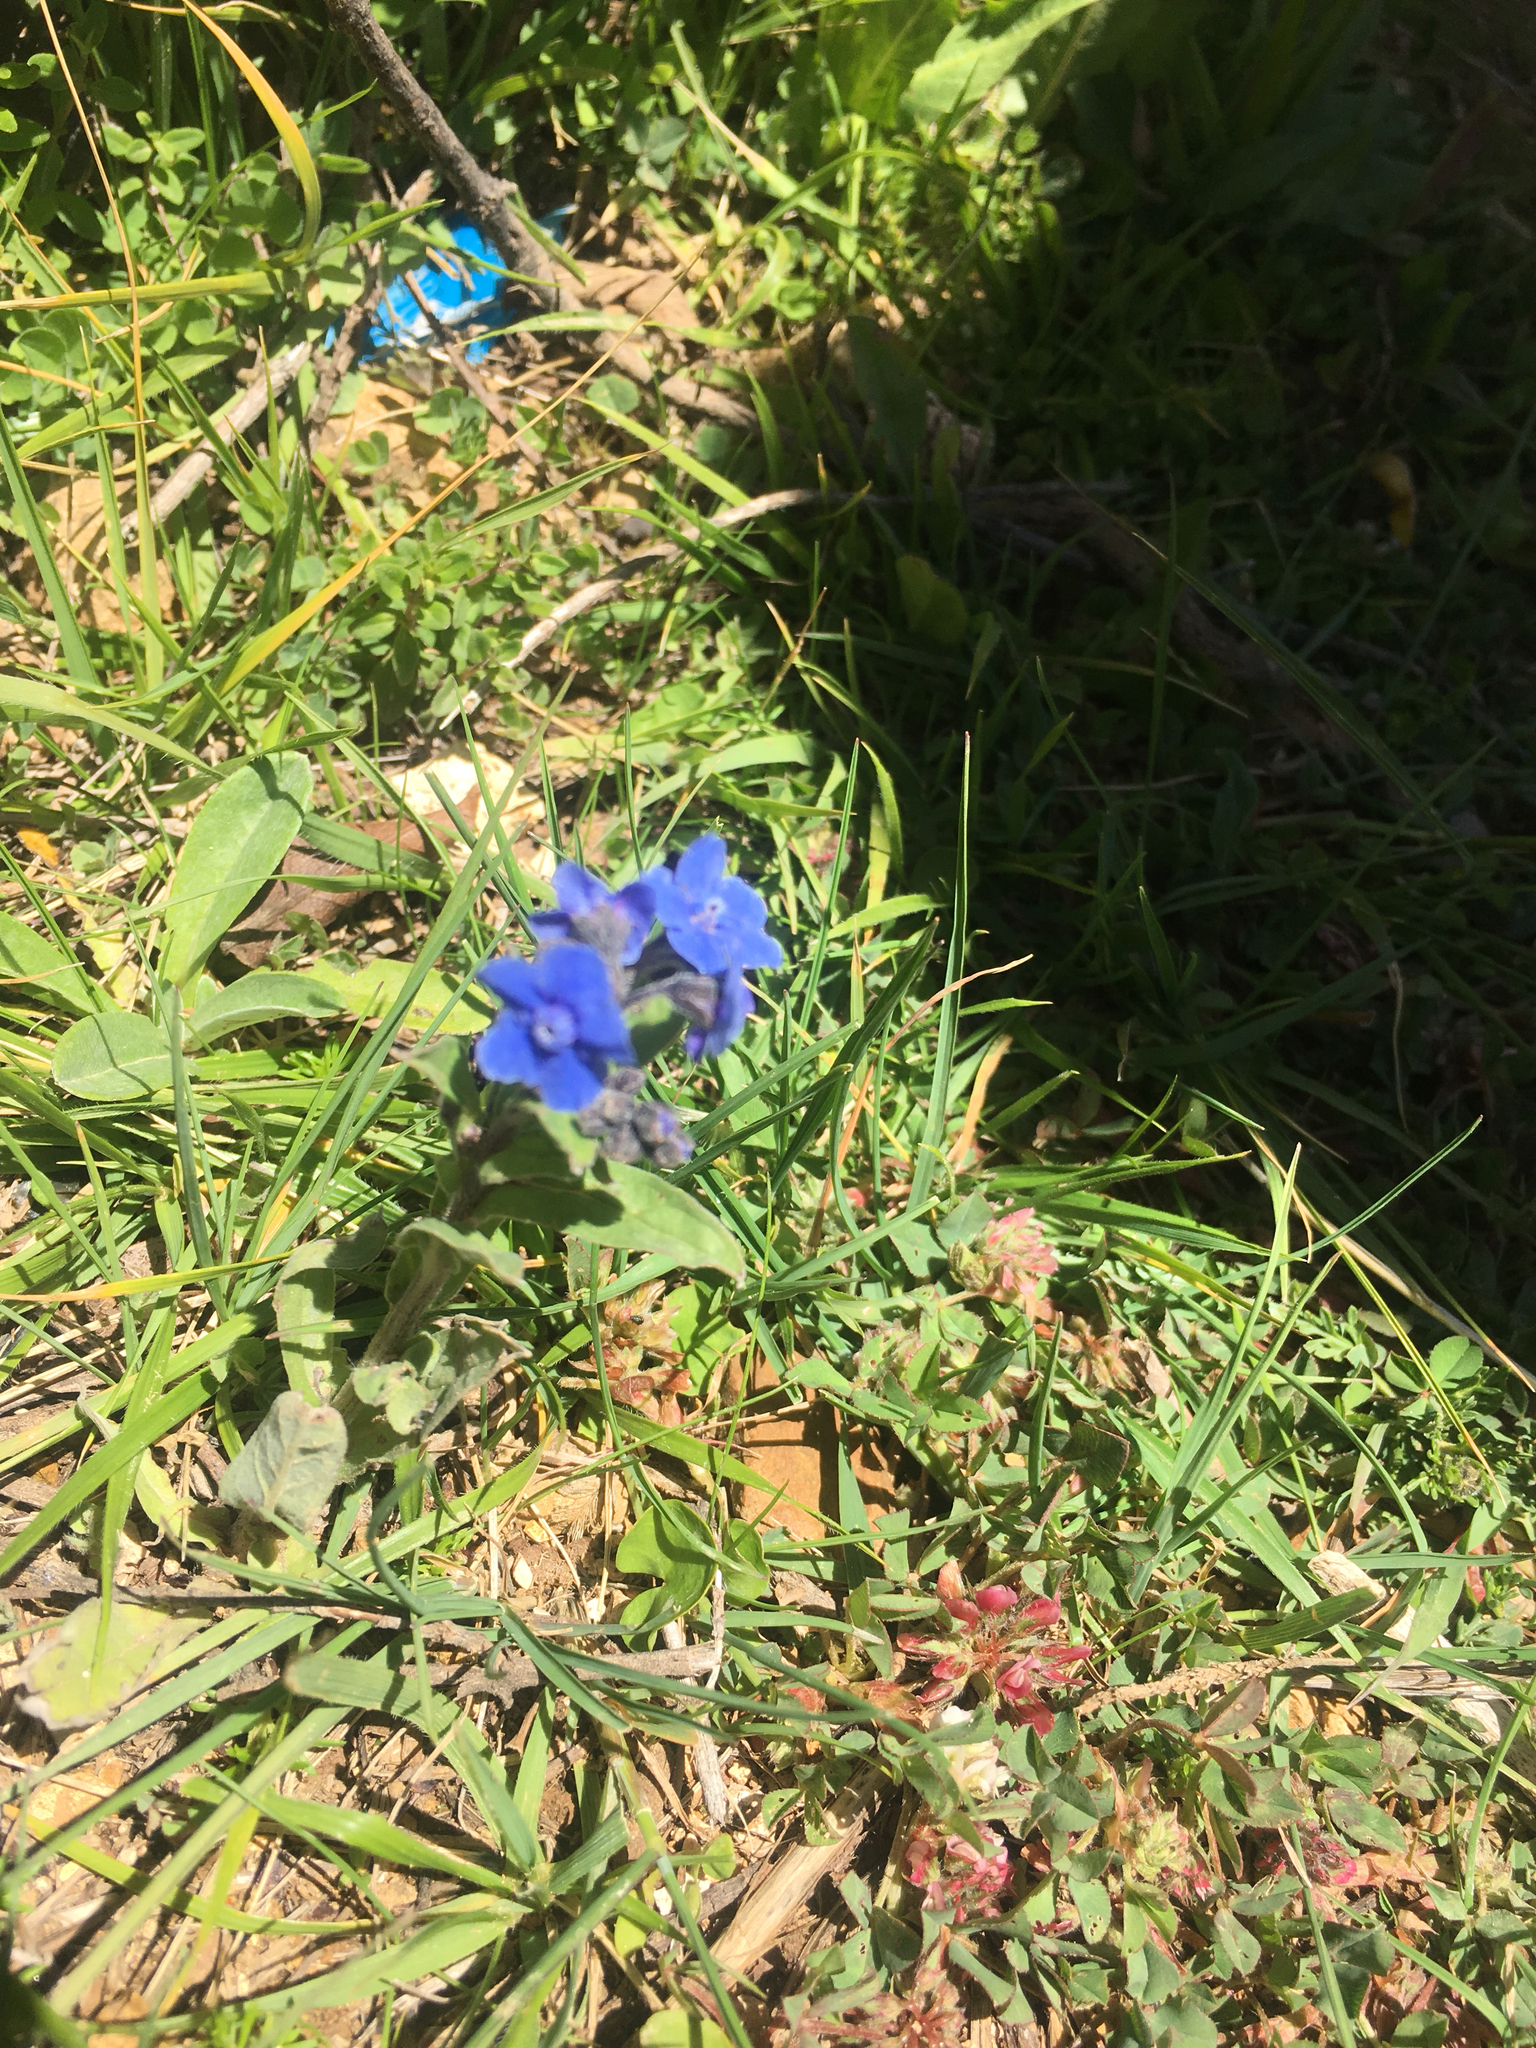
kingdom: Plantae
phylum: Tracheophyta
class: Magnoliopsida
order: Boraginales
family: Boraginaceae
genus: Cynoglossum
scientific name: Cynoglossum amabile
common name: Chinese hound's tongue
